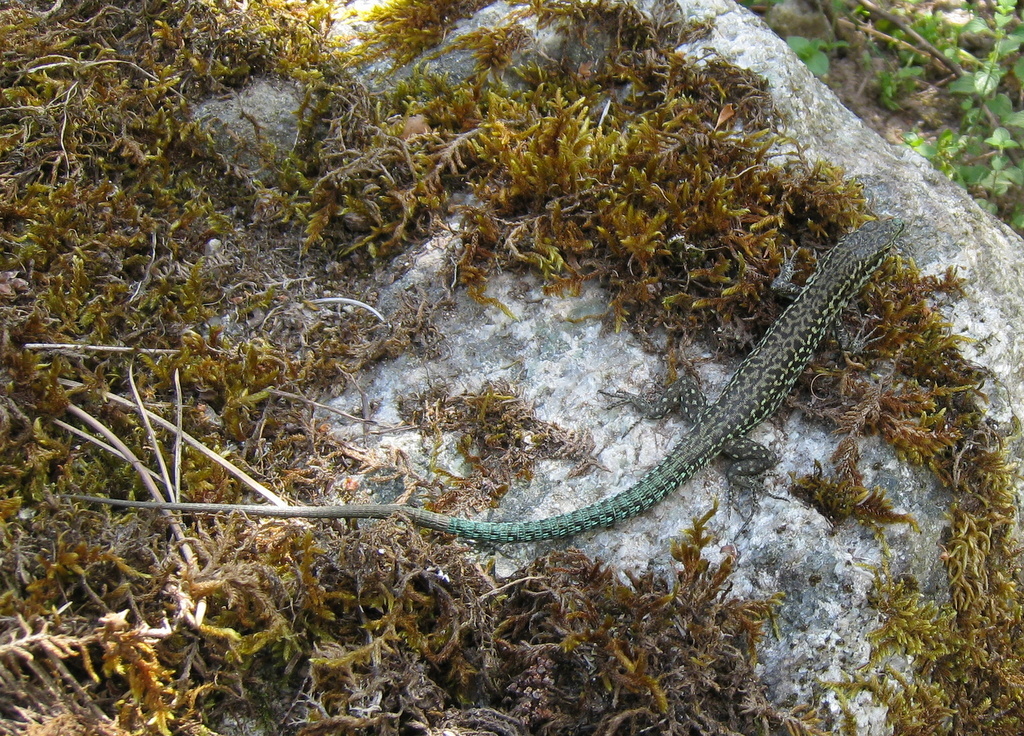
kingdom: Animalia
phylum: Chordata
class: Squamata
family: Lacertidae
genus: Podarcis
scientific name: Podarcis tiliguerta
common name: Tyrrhenian wall lizard
